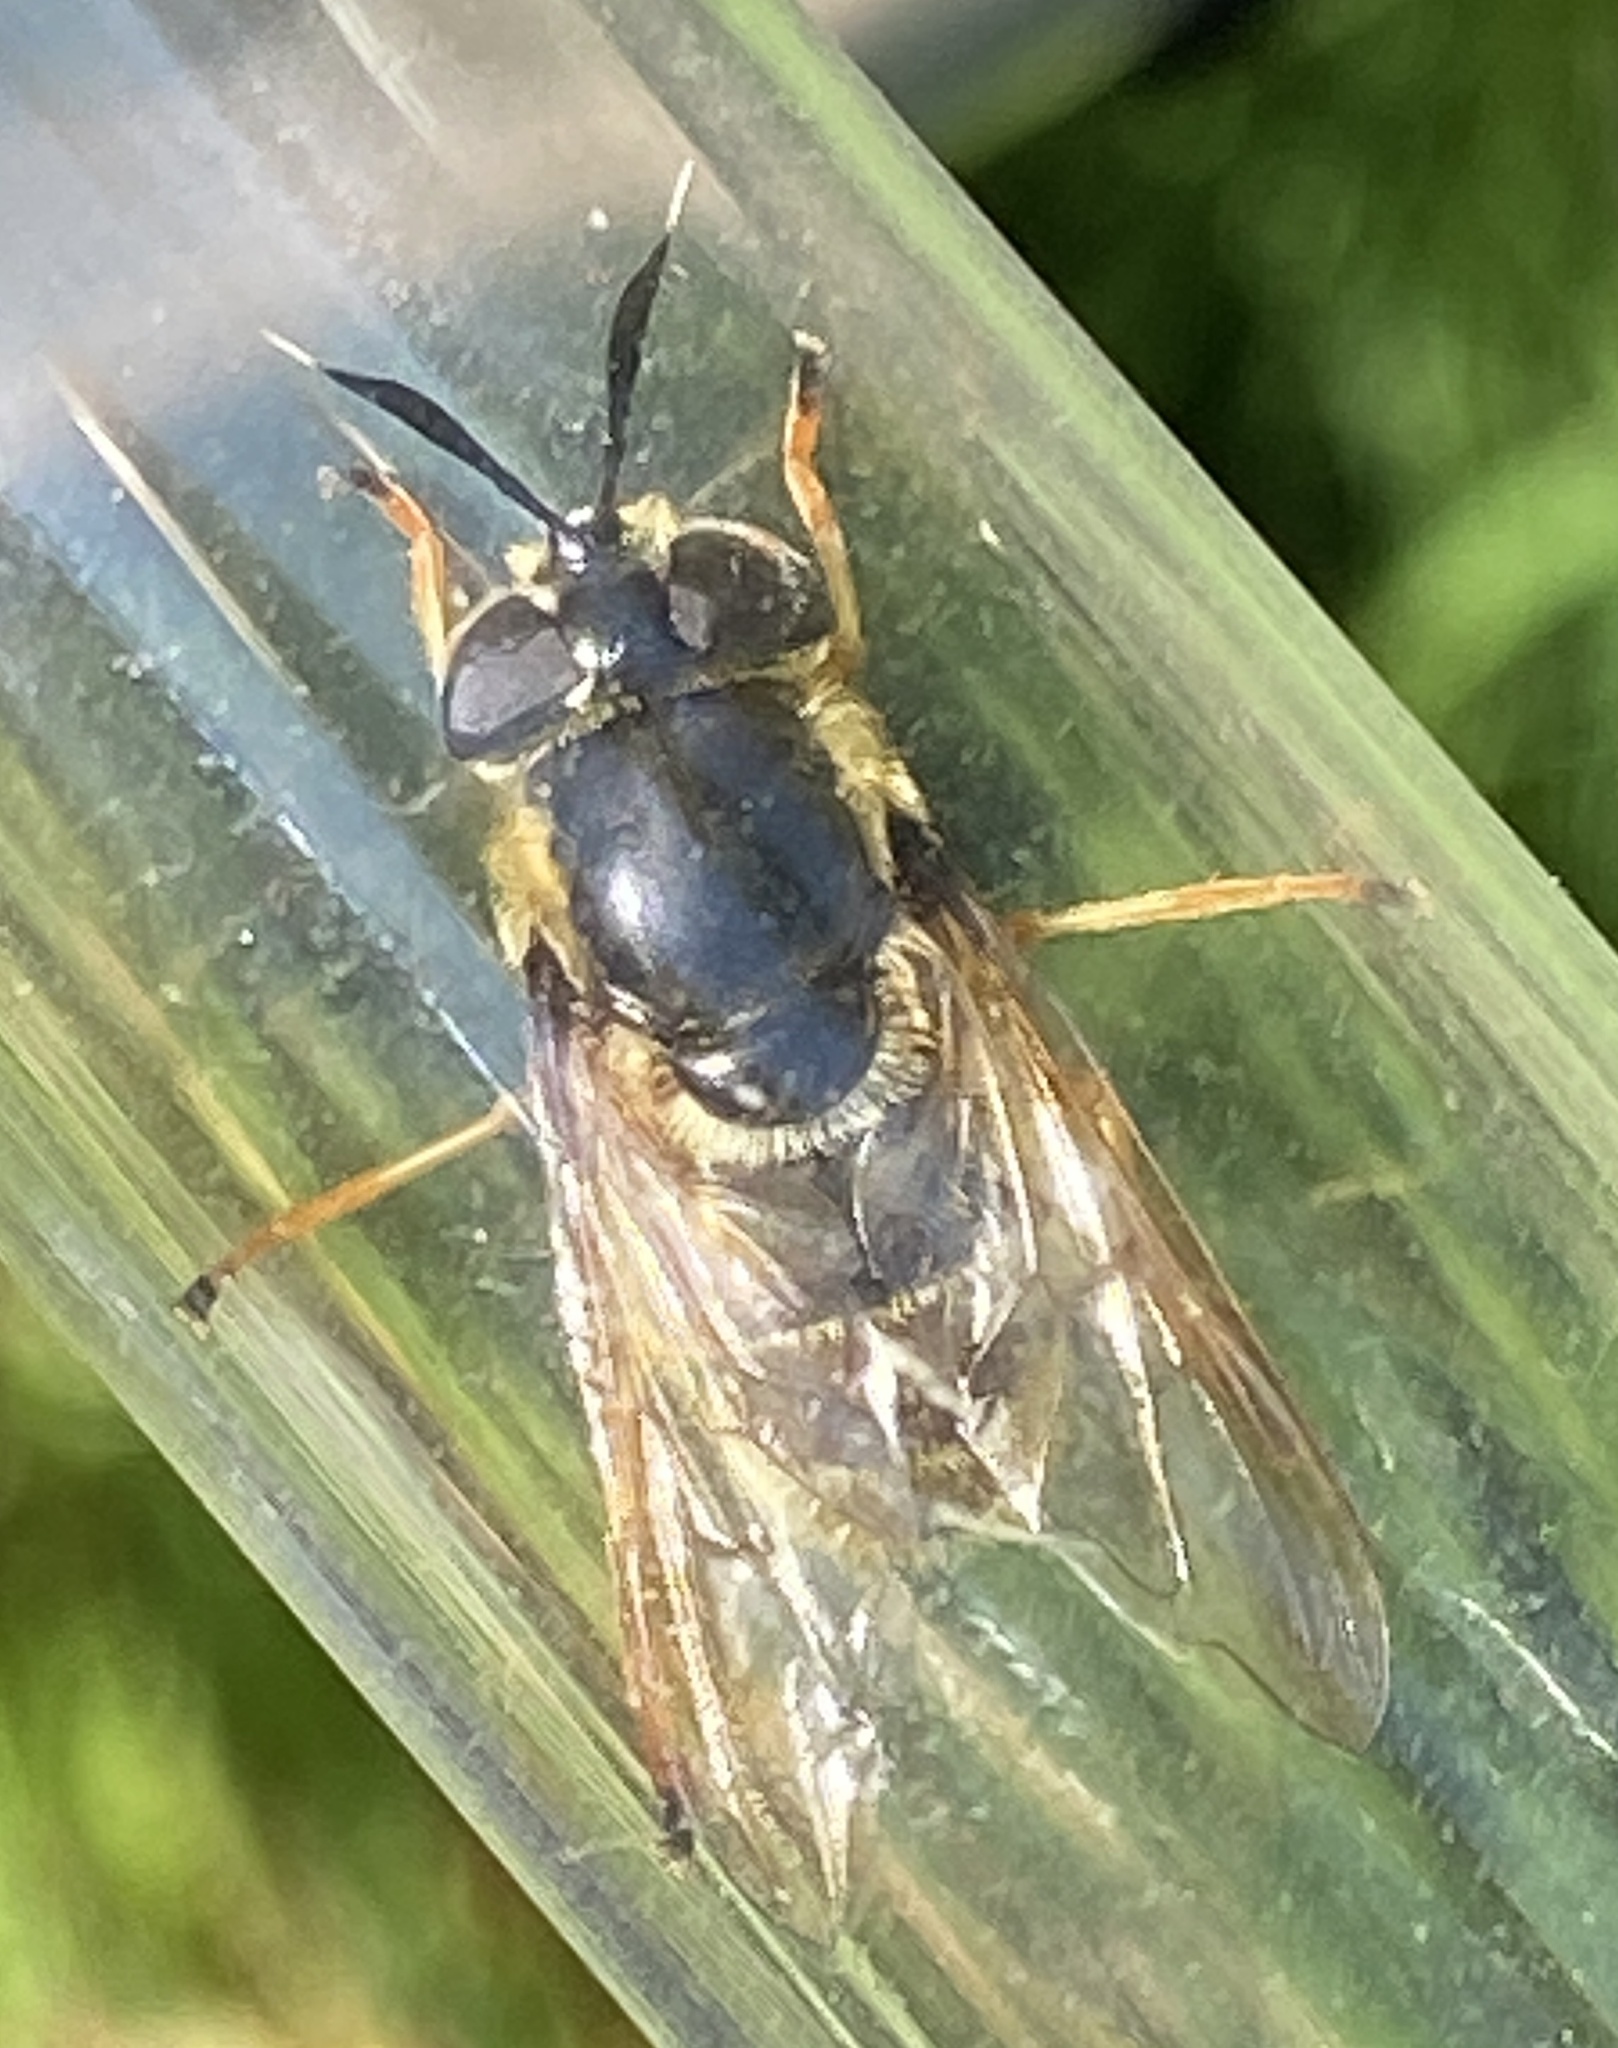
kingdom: Animalia
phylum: Arthropoda
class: Insecta
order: Diptera
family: Syrphidae
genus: Callicera
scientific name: Callicera aurata
